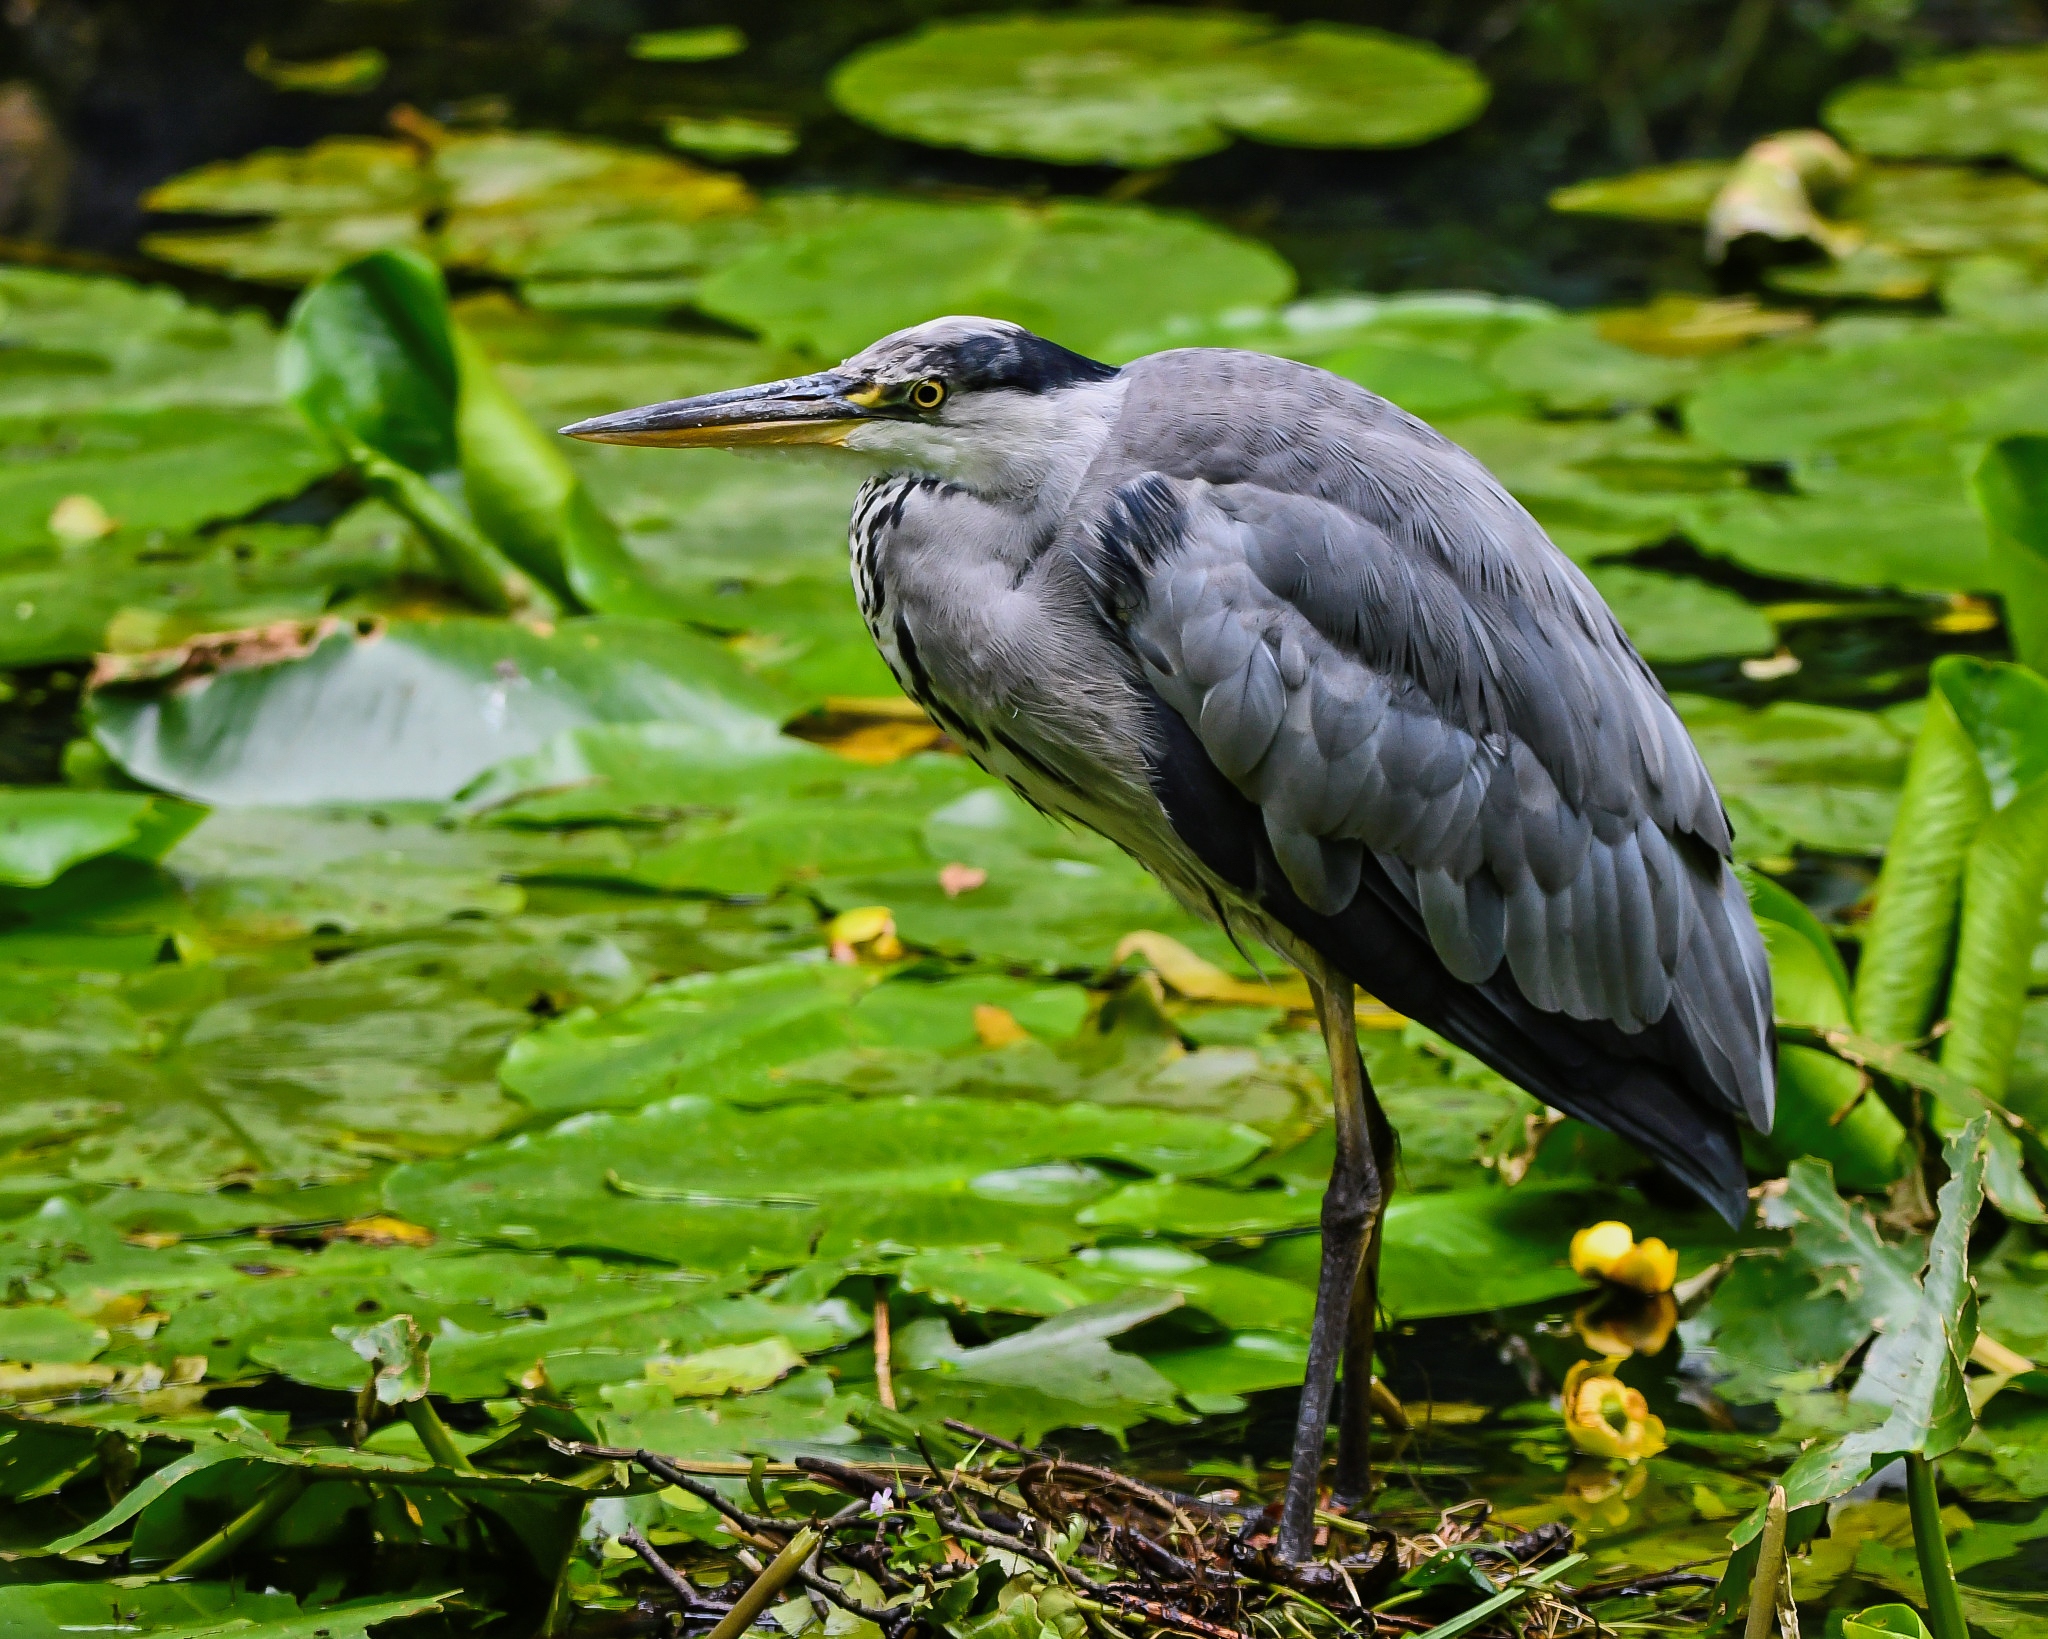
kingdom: Animalia
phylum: Chordata
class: Aves
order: Pelecaniformes
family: Ardeidae
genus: Ardea
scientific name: Ardea cinerea
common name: Grey heron
